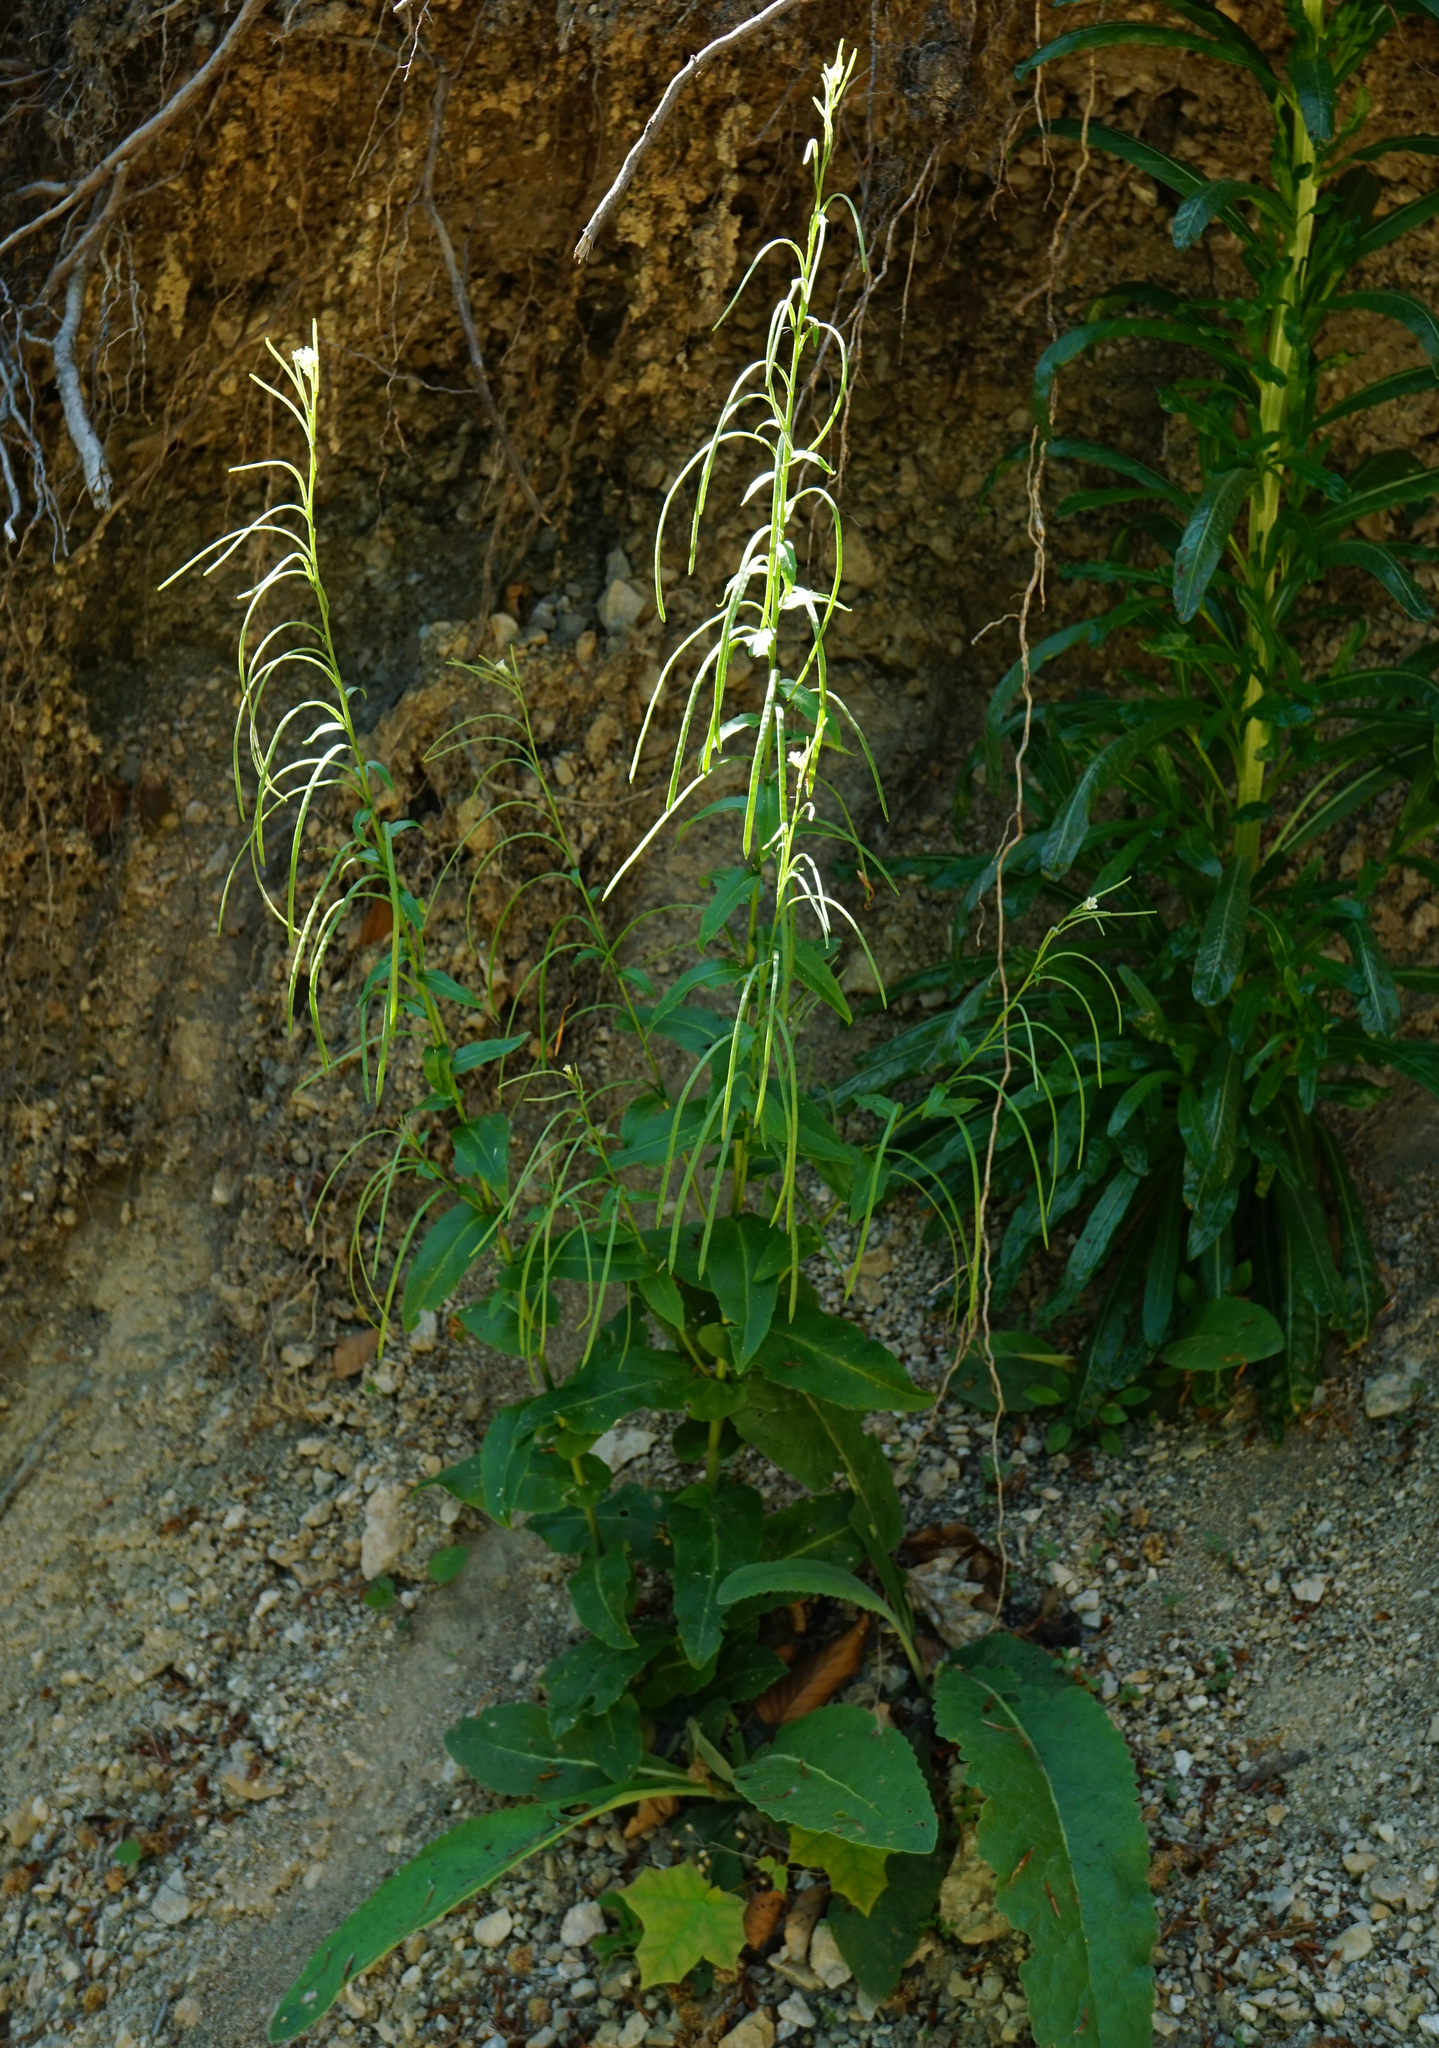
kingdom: Plantae
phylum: Tracheophyta
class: Magnoliopsida
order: Brassicales
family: Brassicaceae
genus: Pseudoturritis
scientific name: Pseudoturritis turrita
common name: Tower cress
